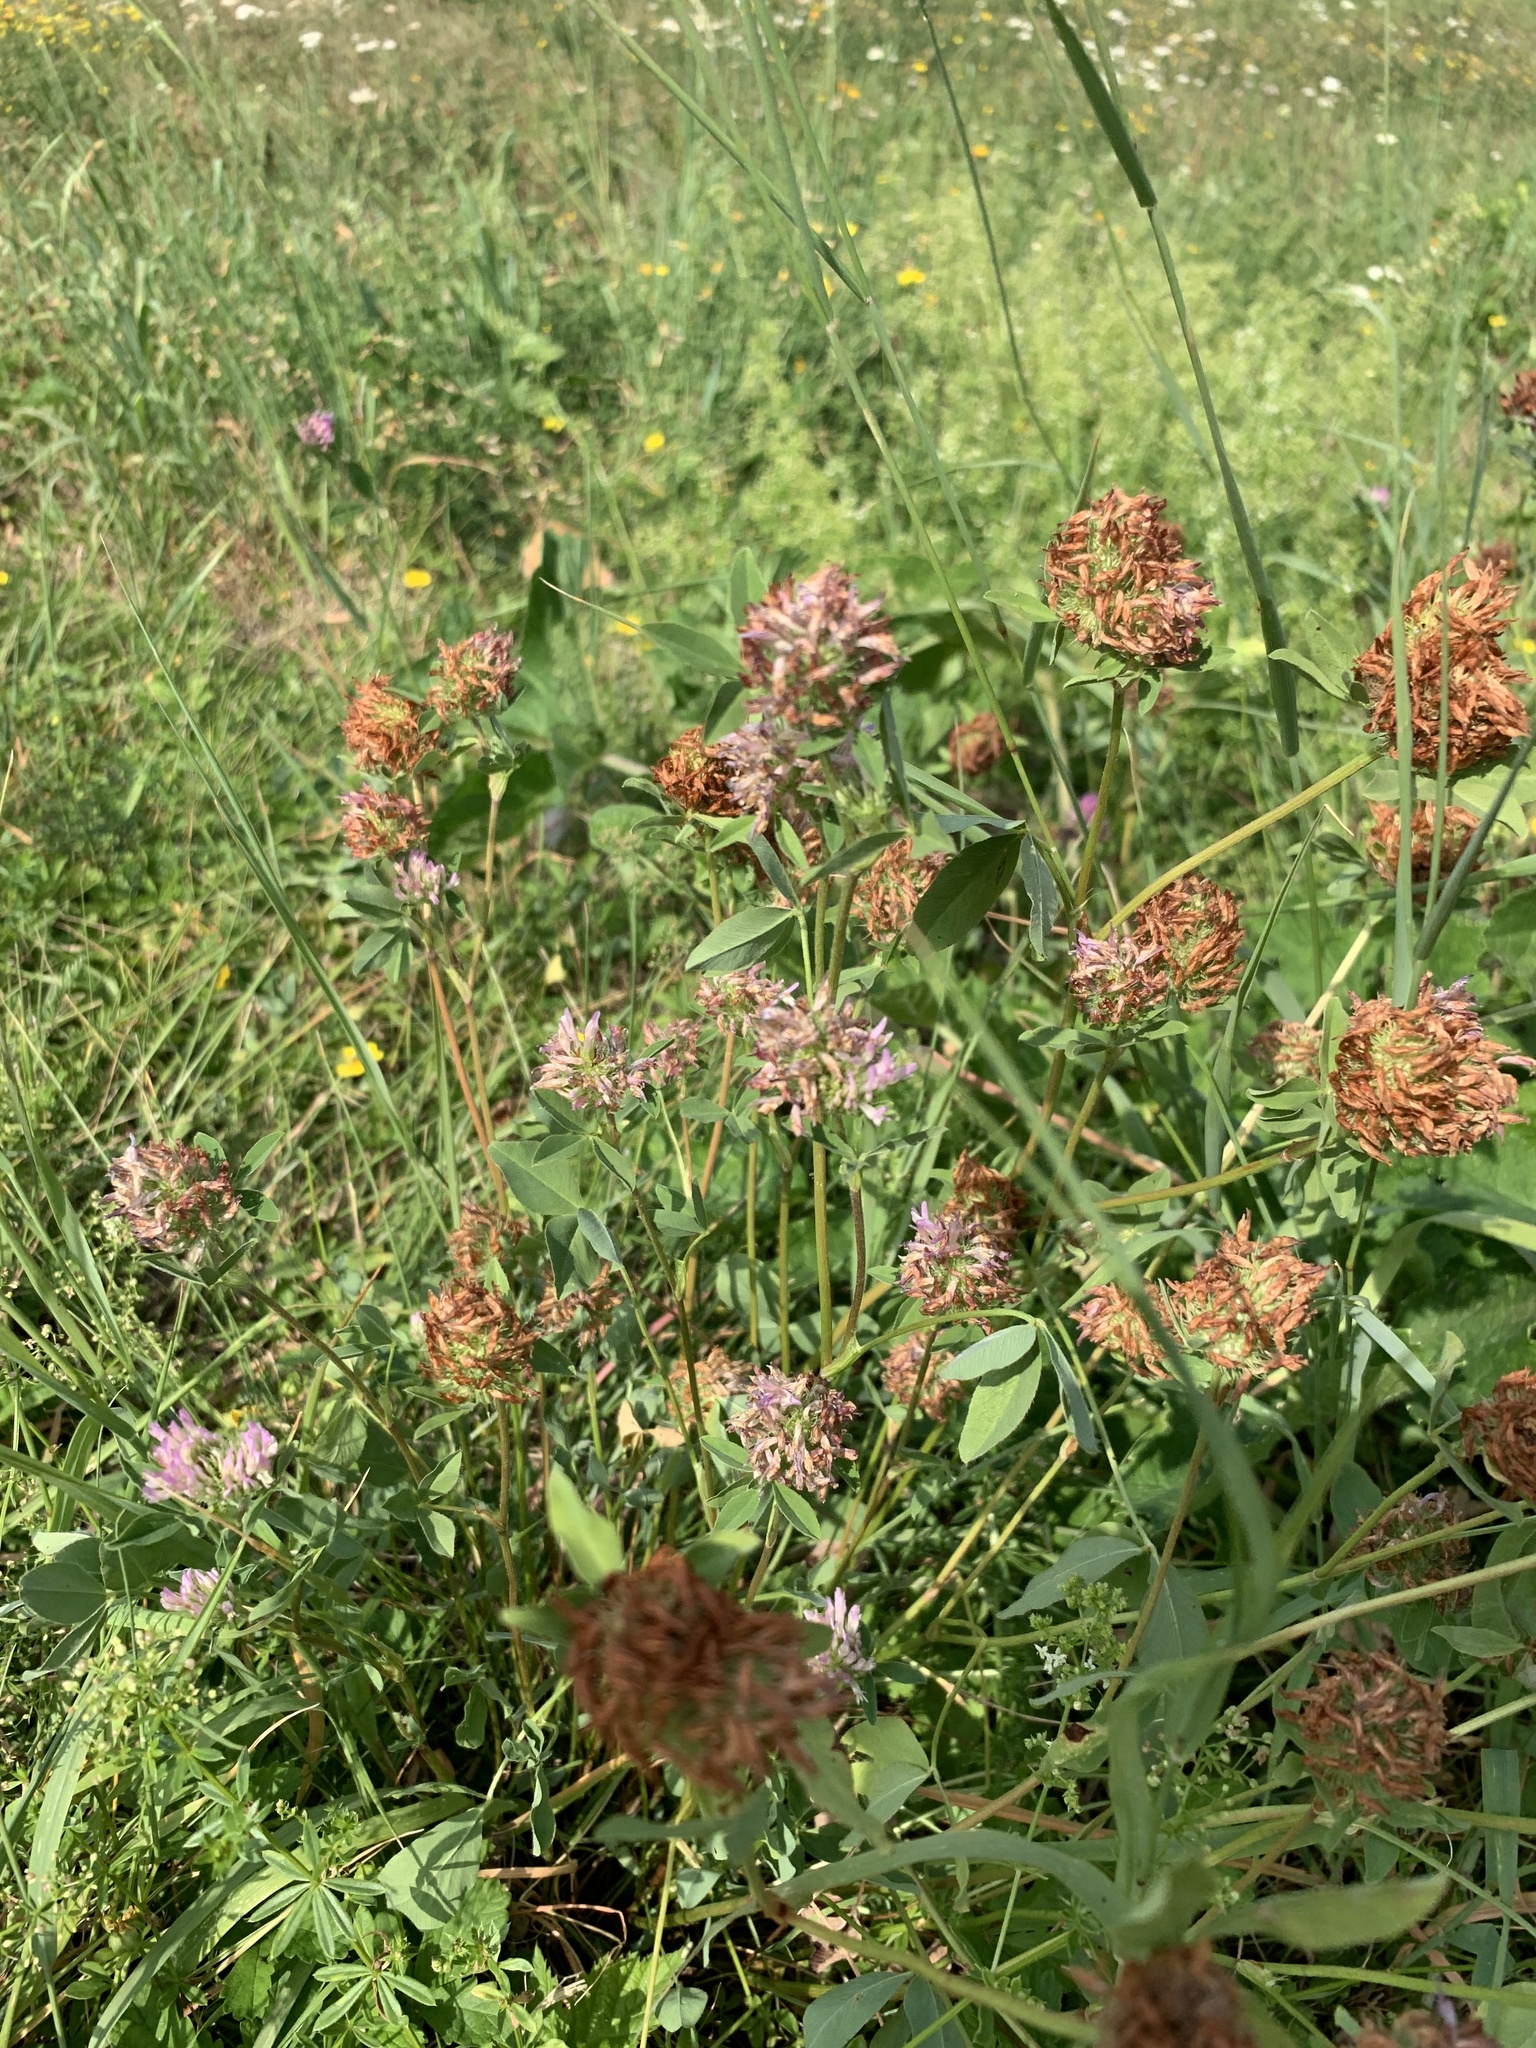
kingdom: Plantae
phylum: Tracheophyta
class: Magnoliopsida
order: Fabales
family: Fabaceae
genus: Trifolium
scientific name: Trifolium pratense
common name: Red clover
